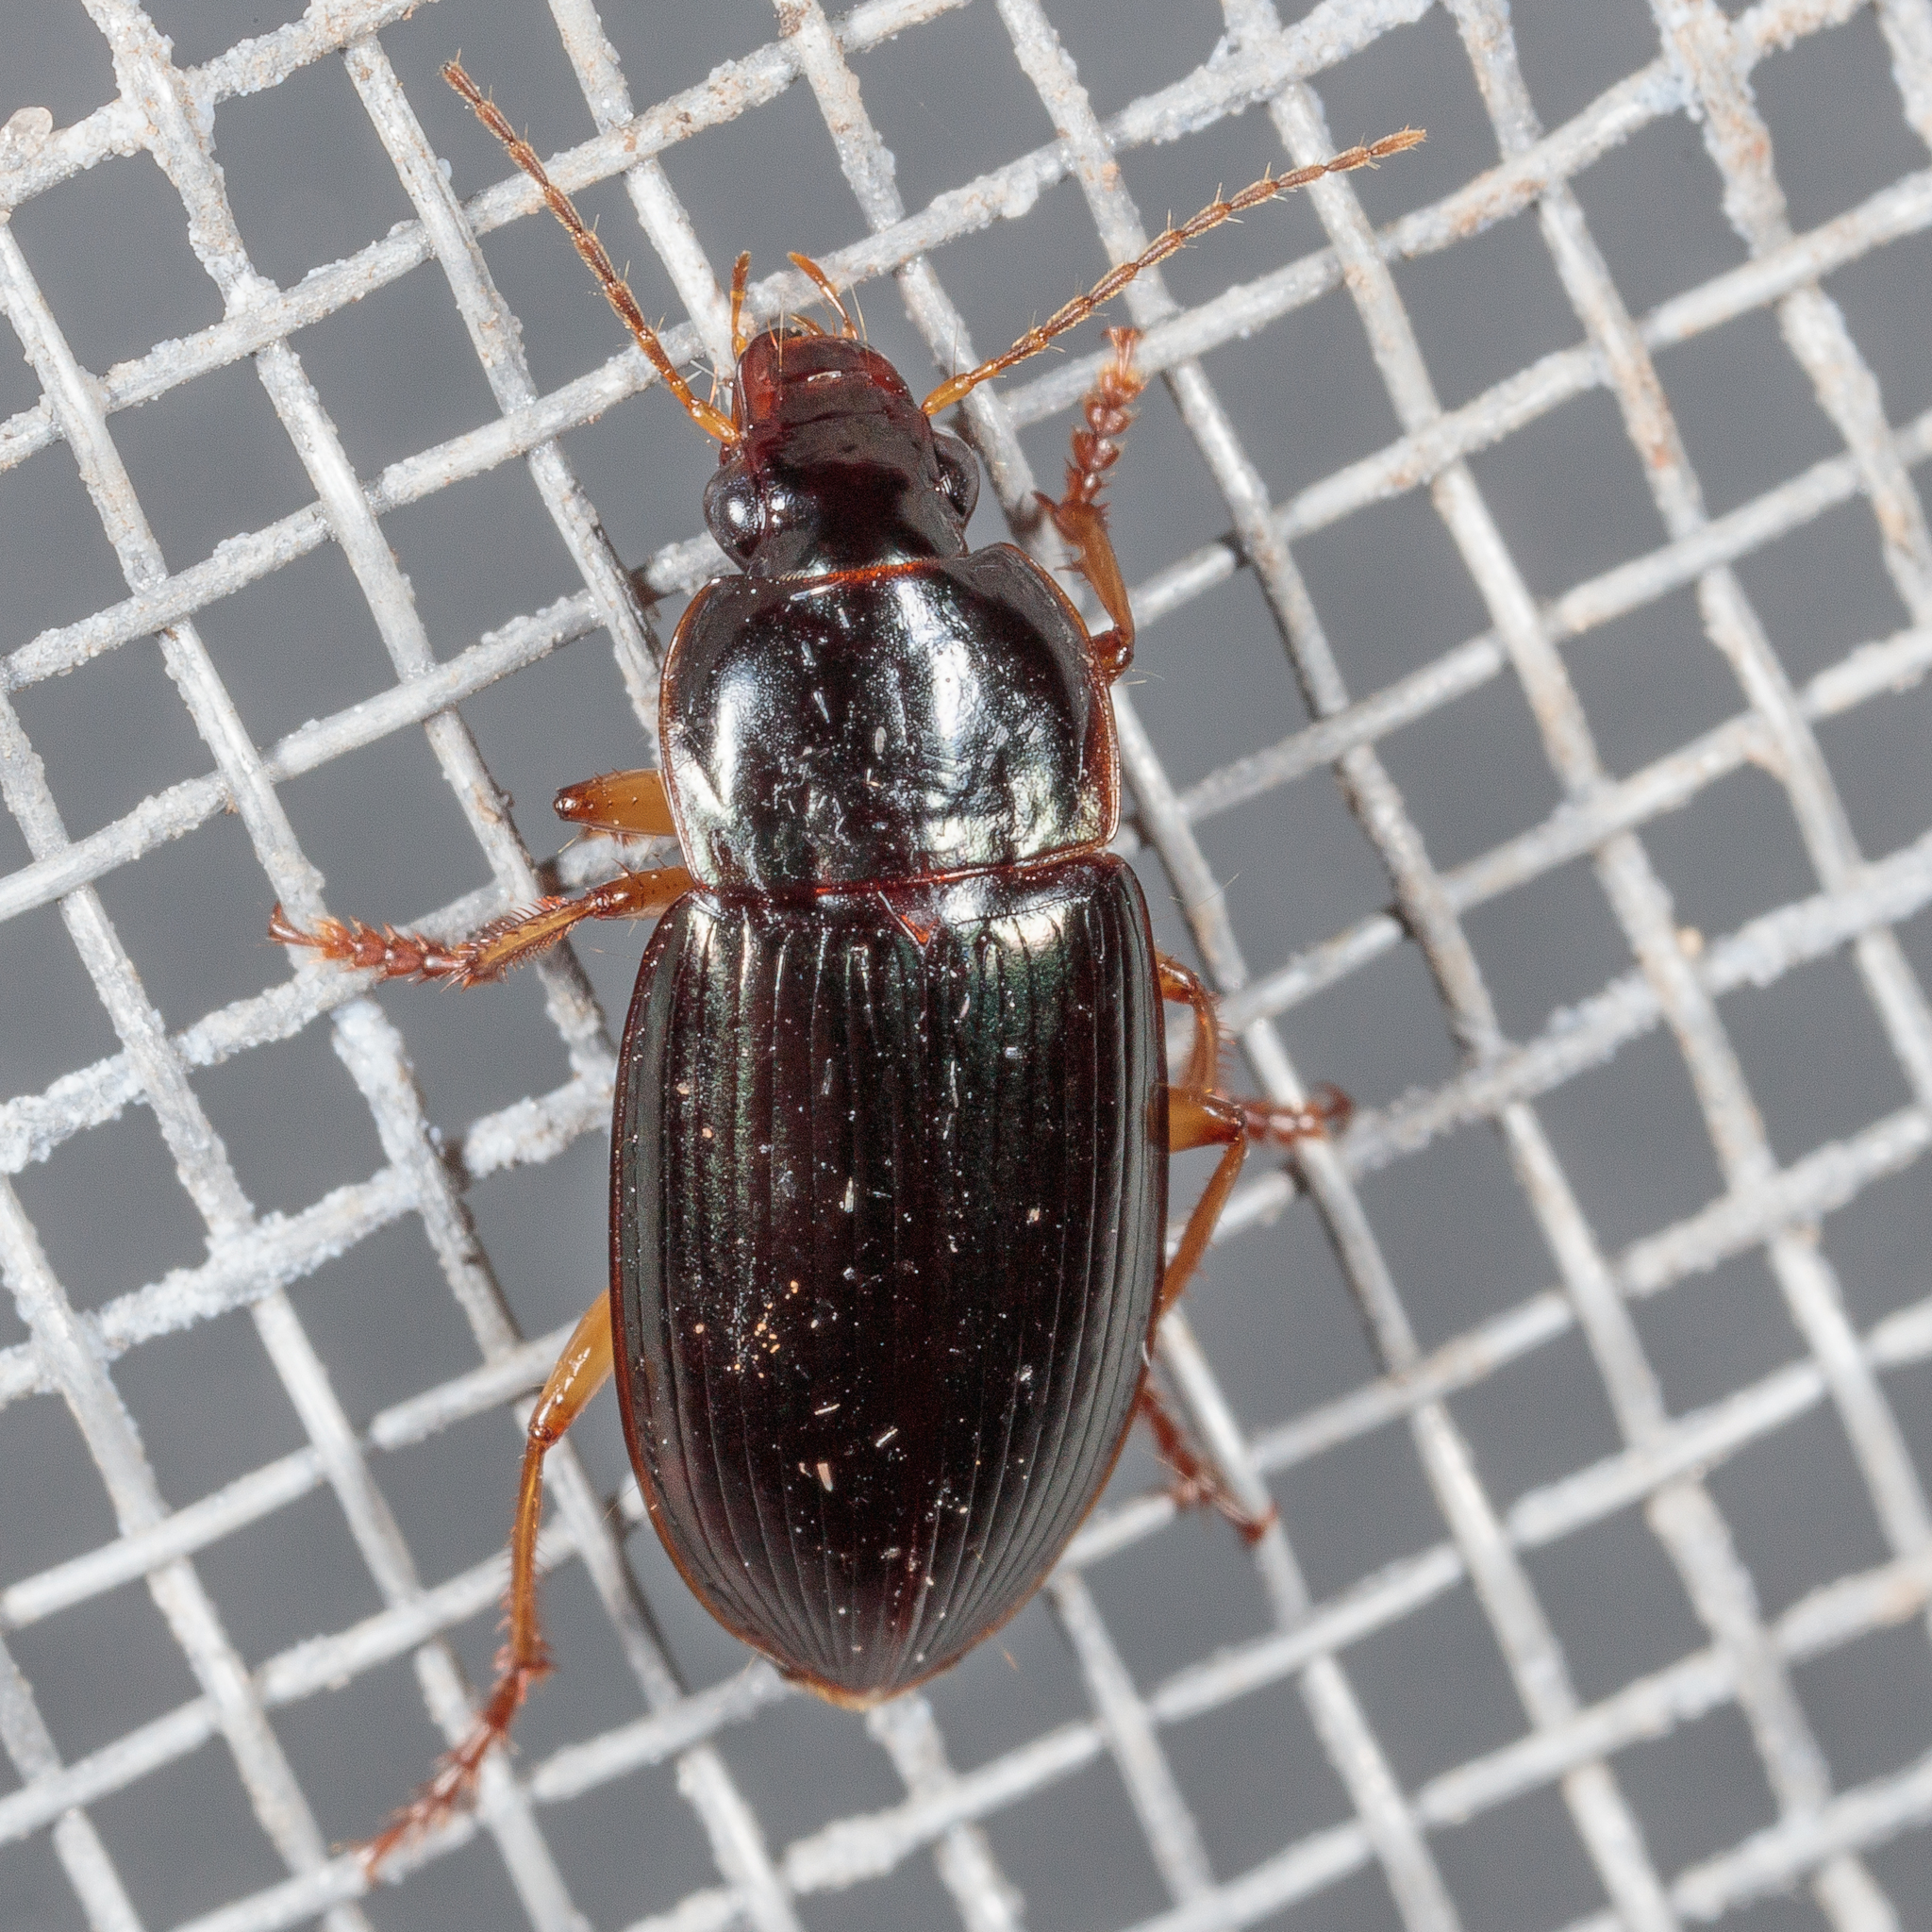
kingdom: Animalia
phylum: Arthropoda
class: Insecta
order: Coleoptera
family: Carabidae
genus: Notiobia
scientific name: Notiobia sayi
